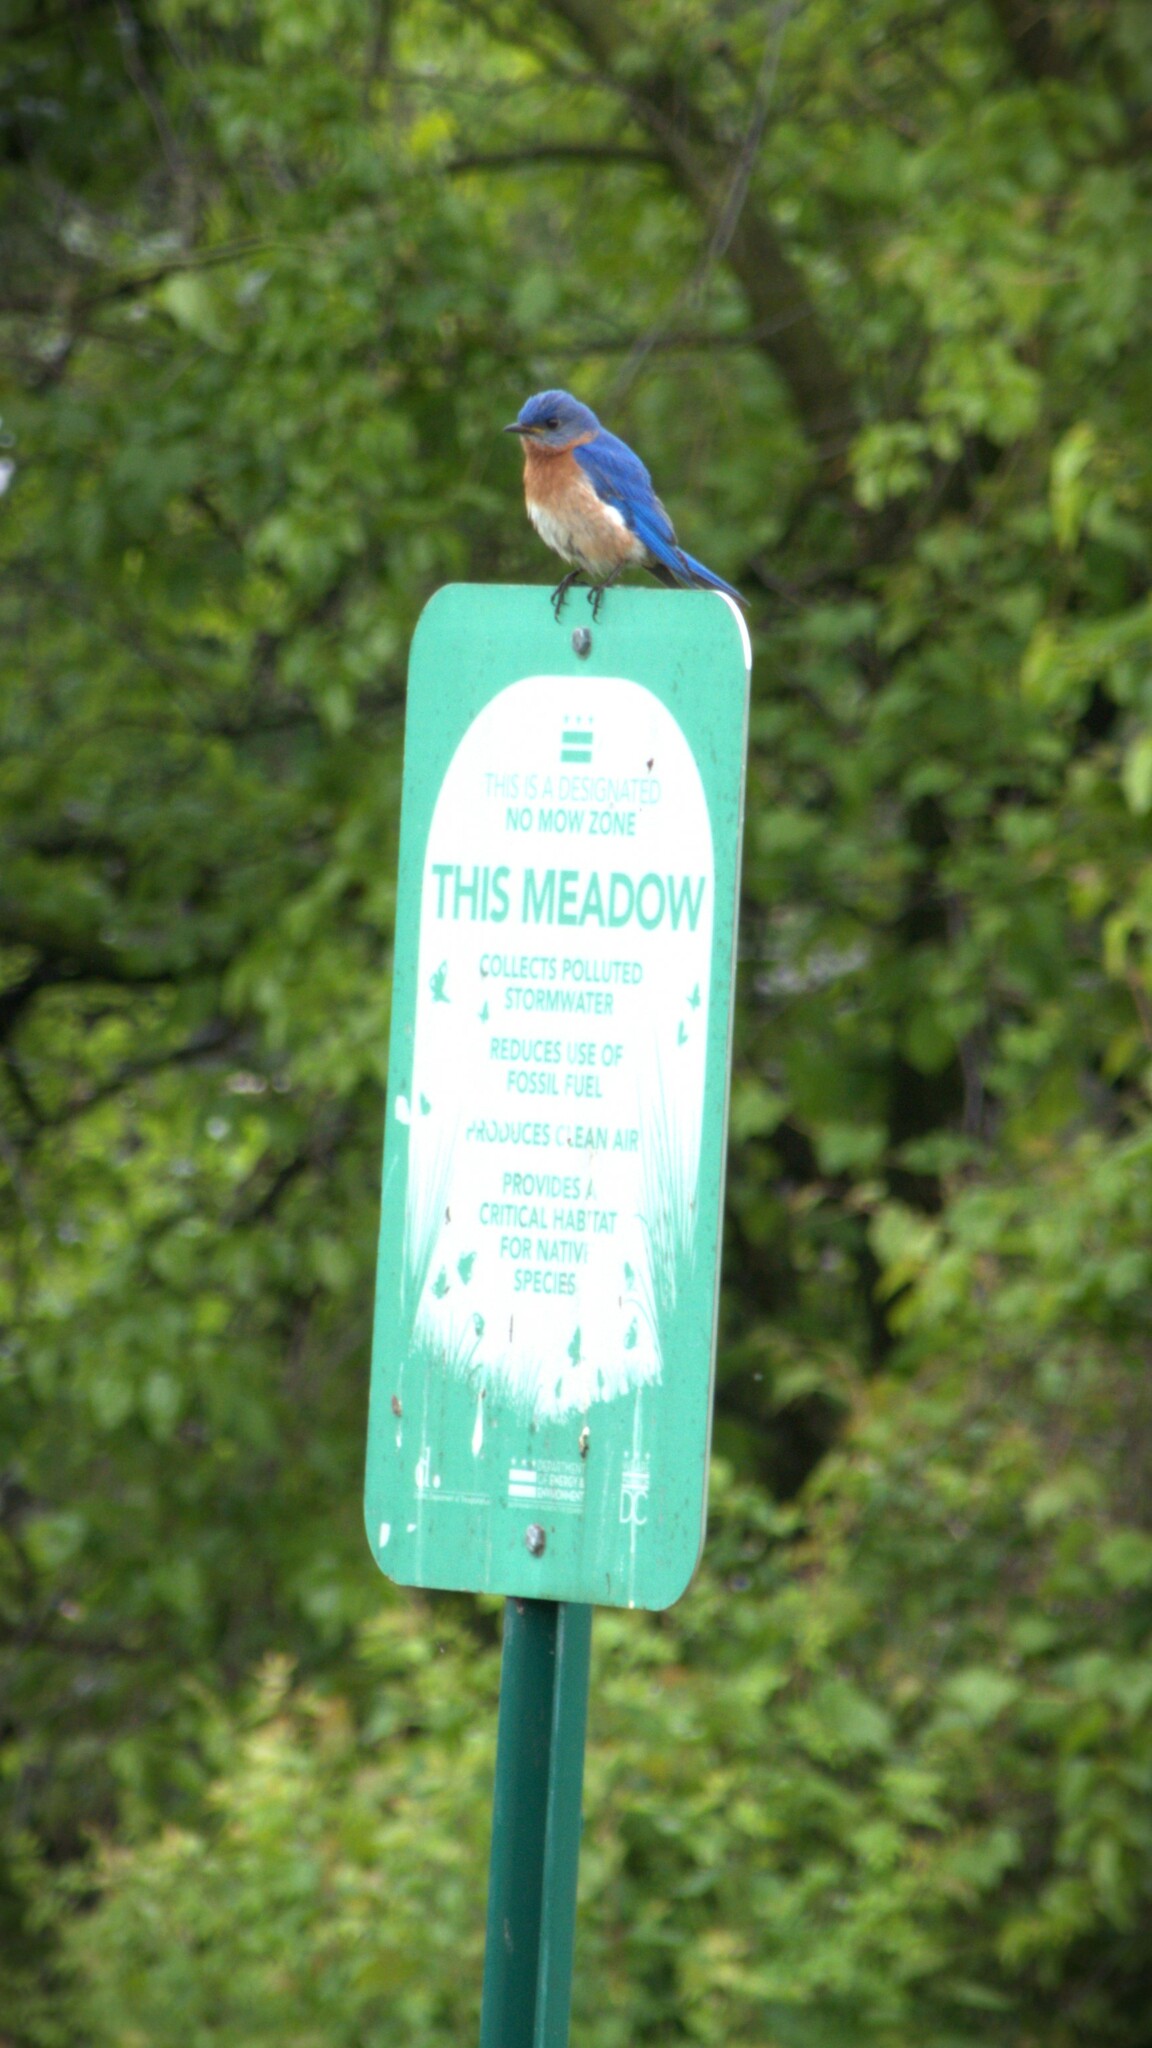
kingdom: Animalia
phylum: Chordata
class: Aves
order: Passeriformes
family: Turdidae
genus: Sialia
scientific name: Sialia sialis
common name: Eastern bluebird
